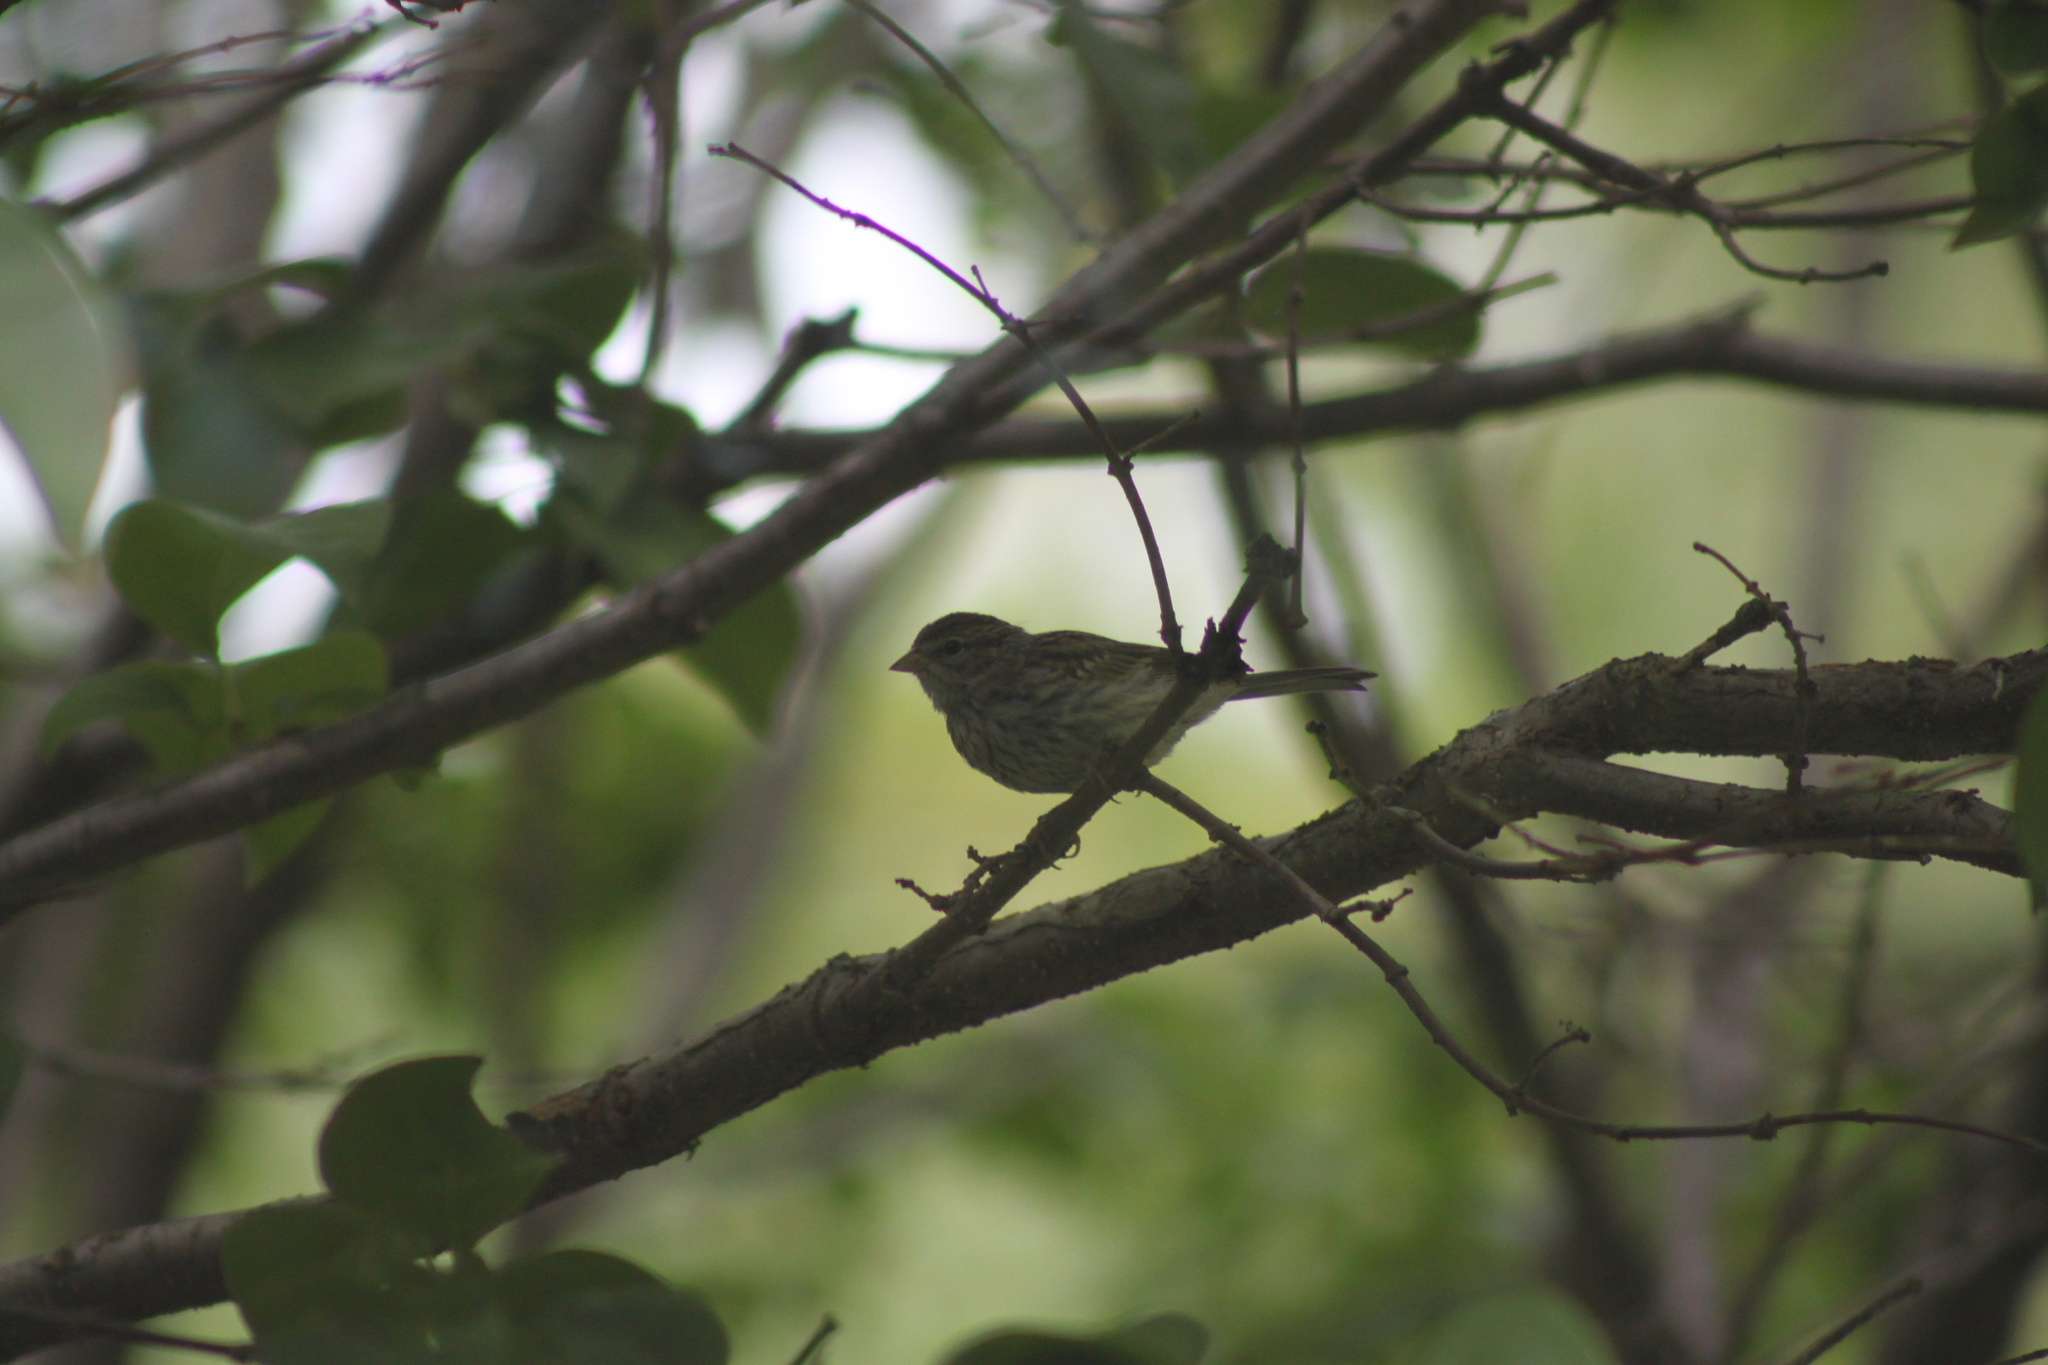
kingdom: Animalia
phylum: Chordata
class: Aves
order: Passeriformes
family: Passerellidae
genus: Spizella
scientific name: Spizella passerina
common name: Chipping sparrow
